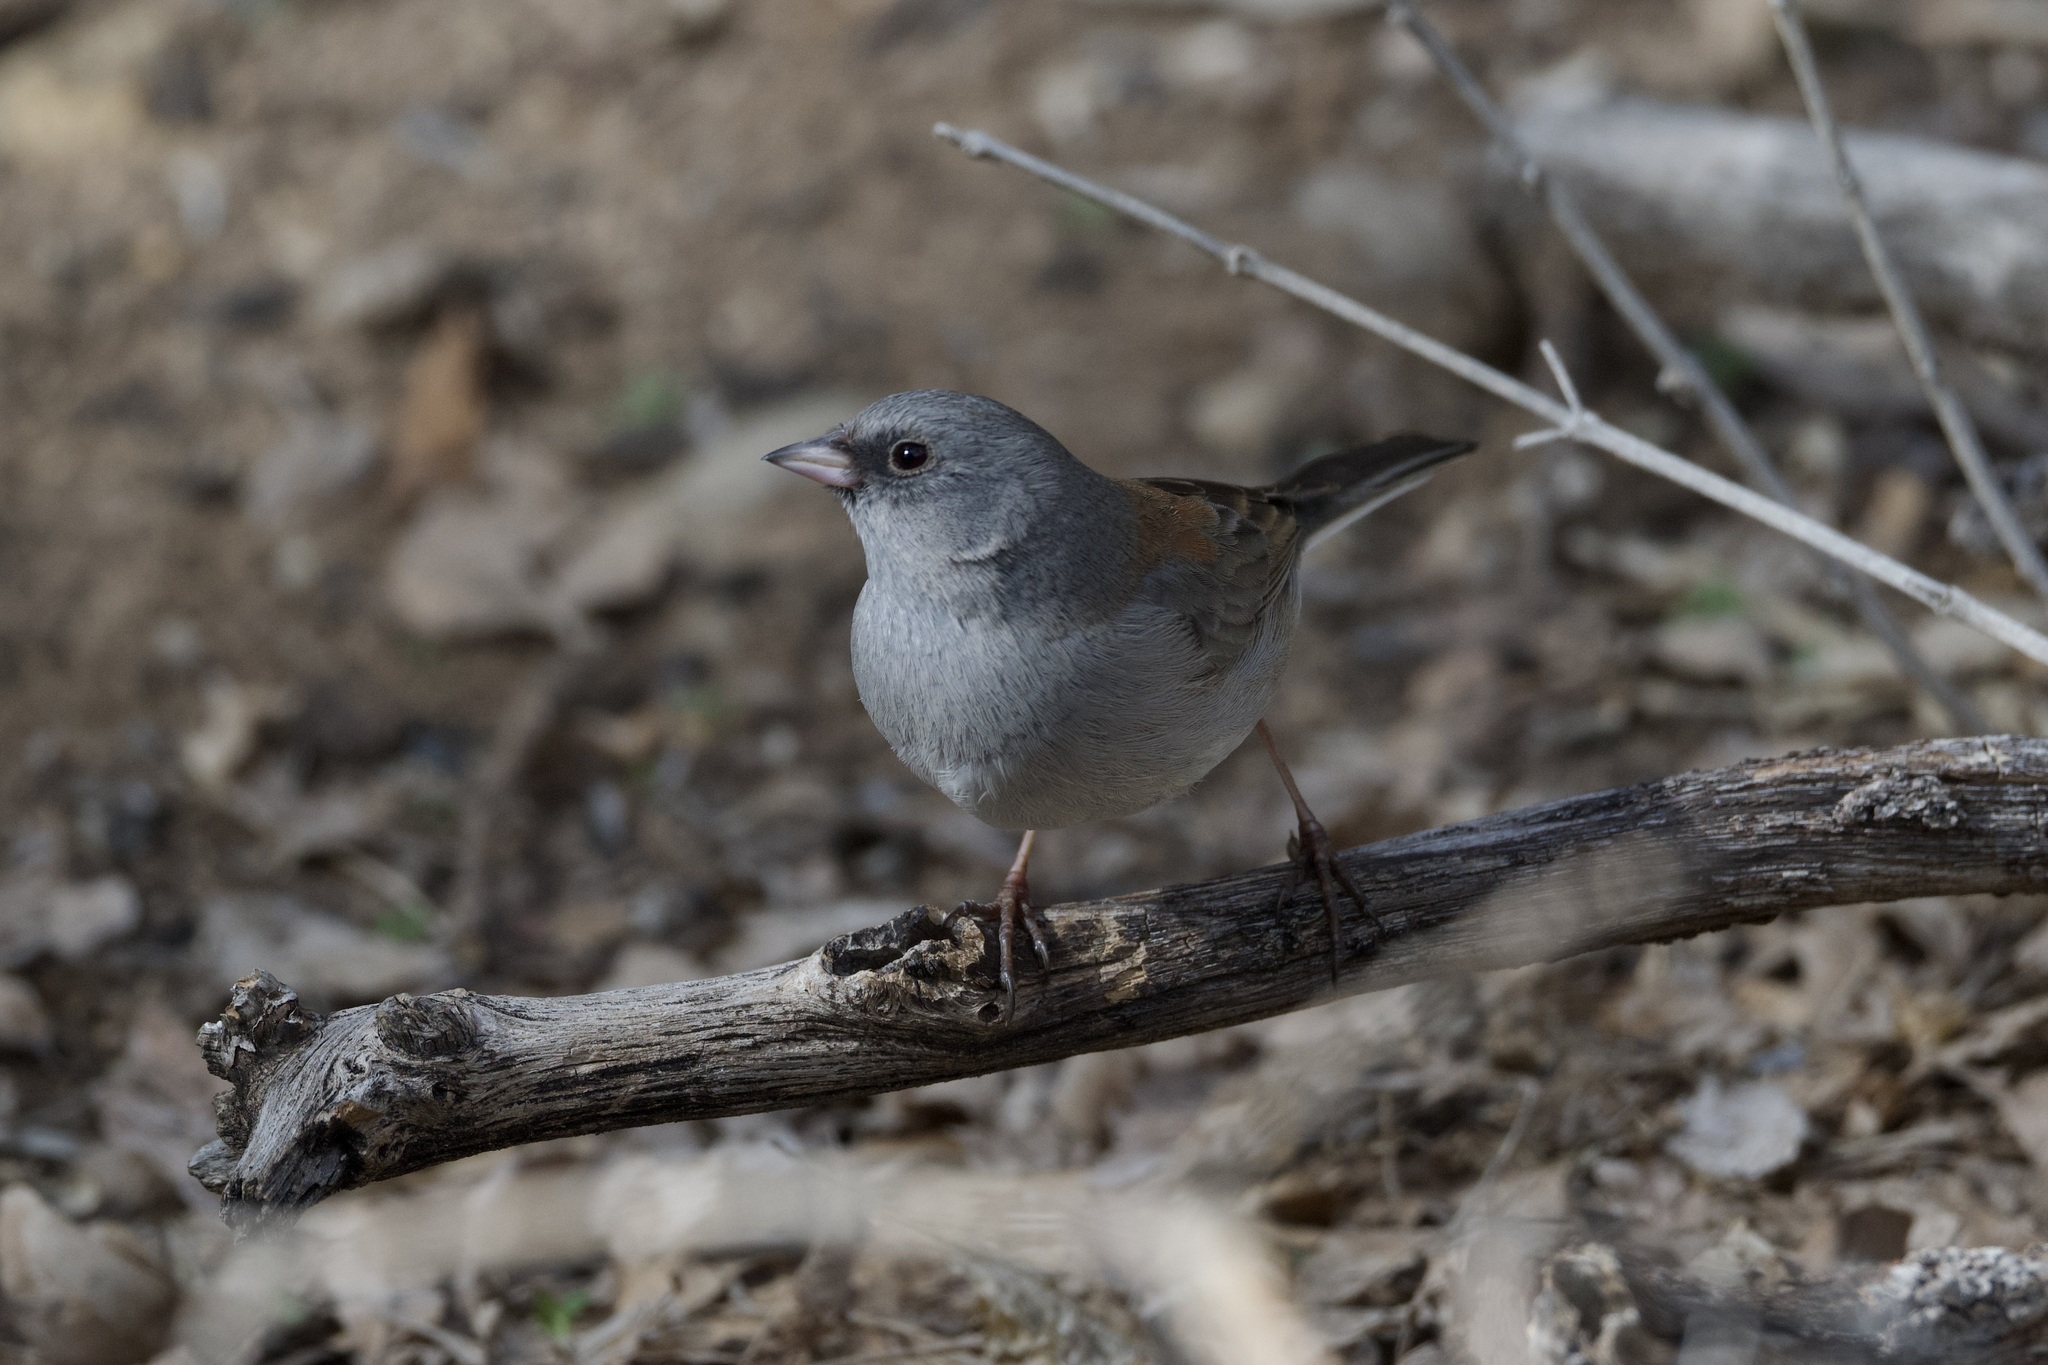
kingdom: Animalia
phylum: Chordata
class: Aves
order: Passeriformes
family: Passerellidae
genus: Junco
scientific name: Junco hyemalis
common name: Dark-eyed junco
